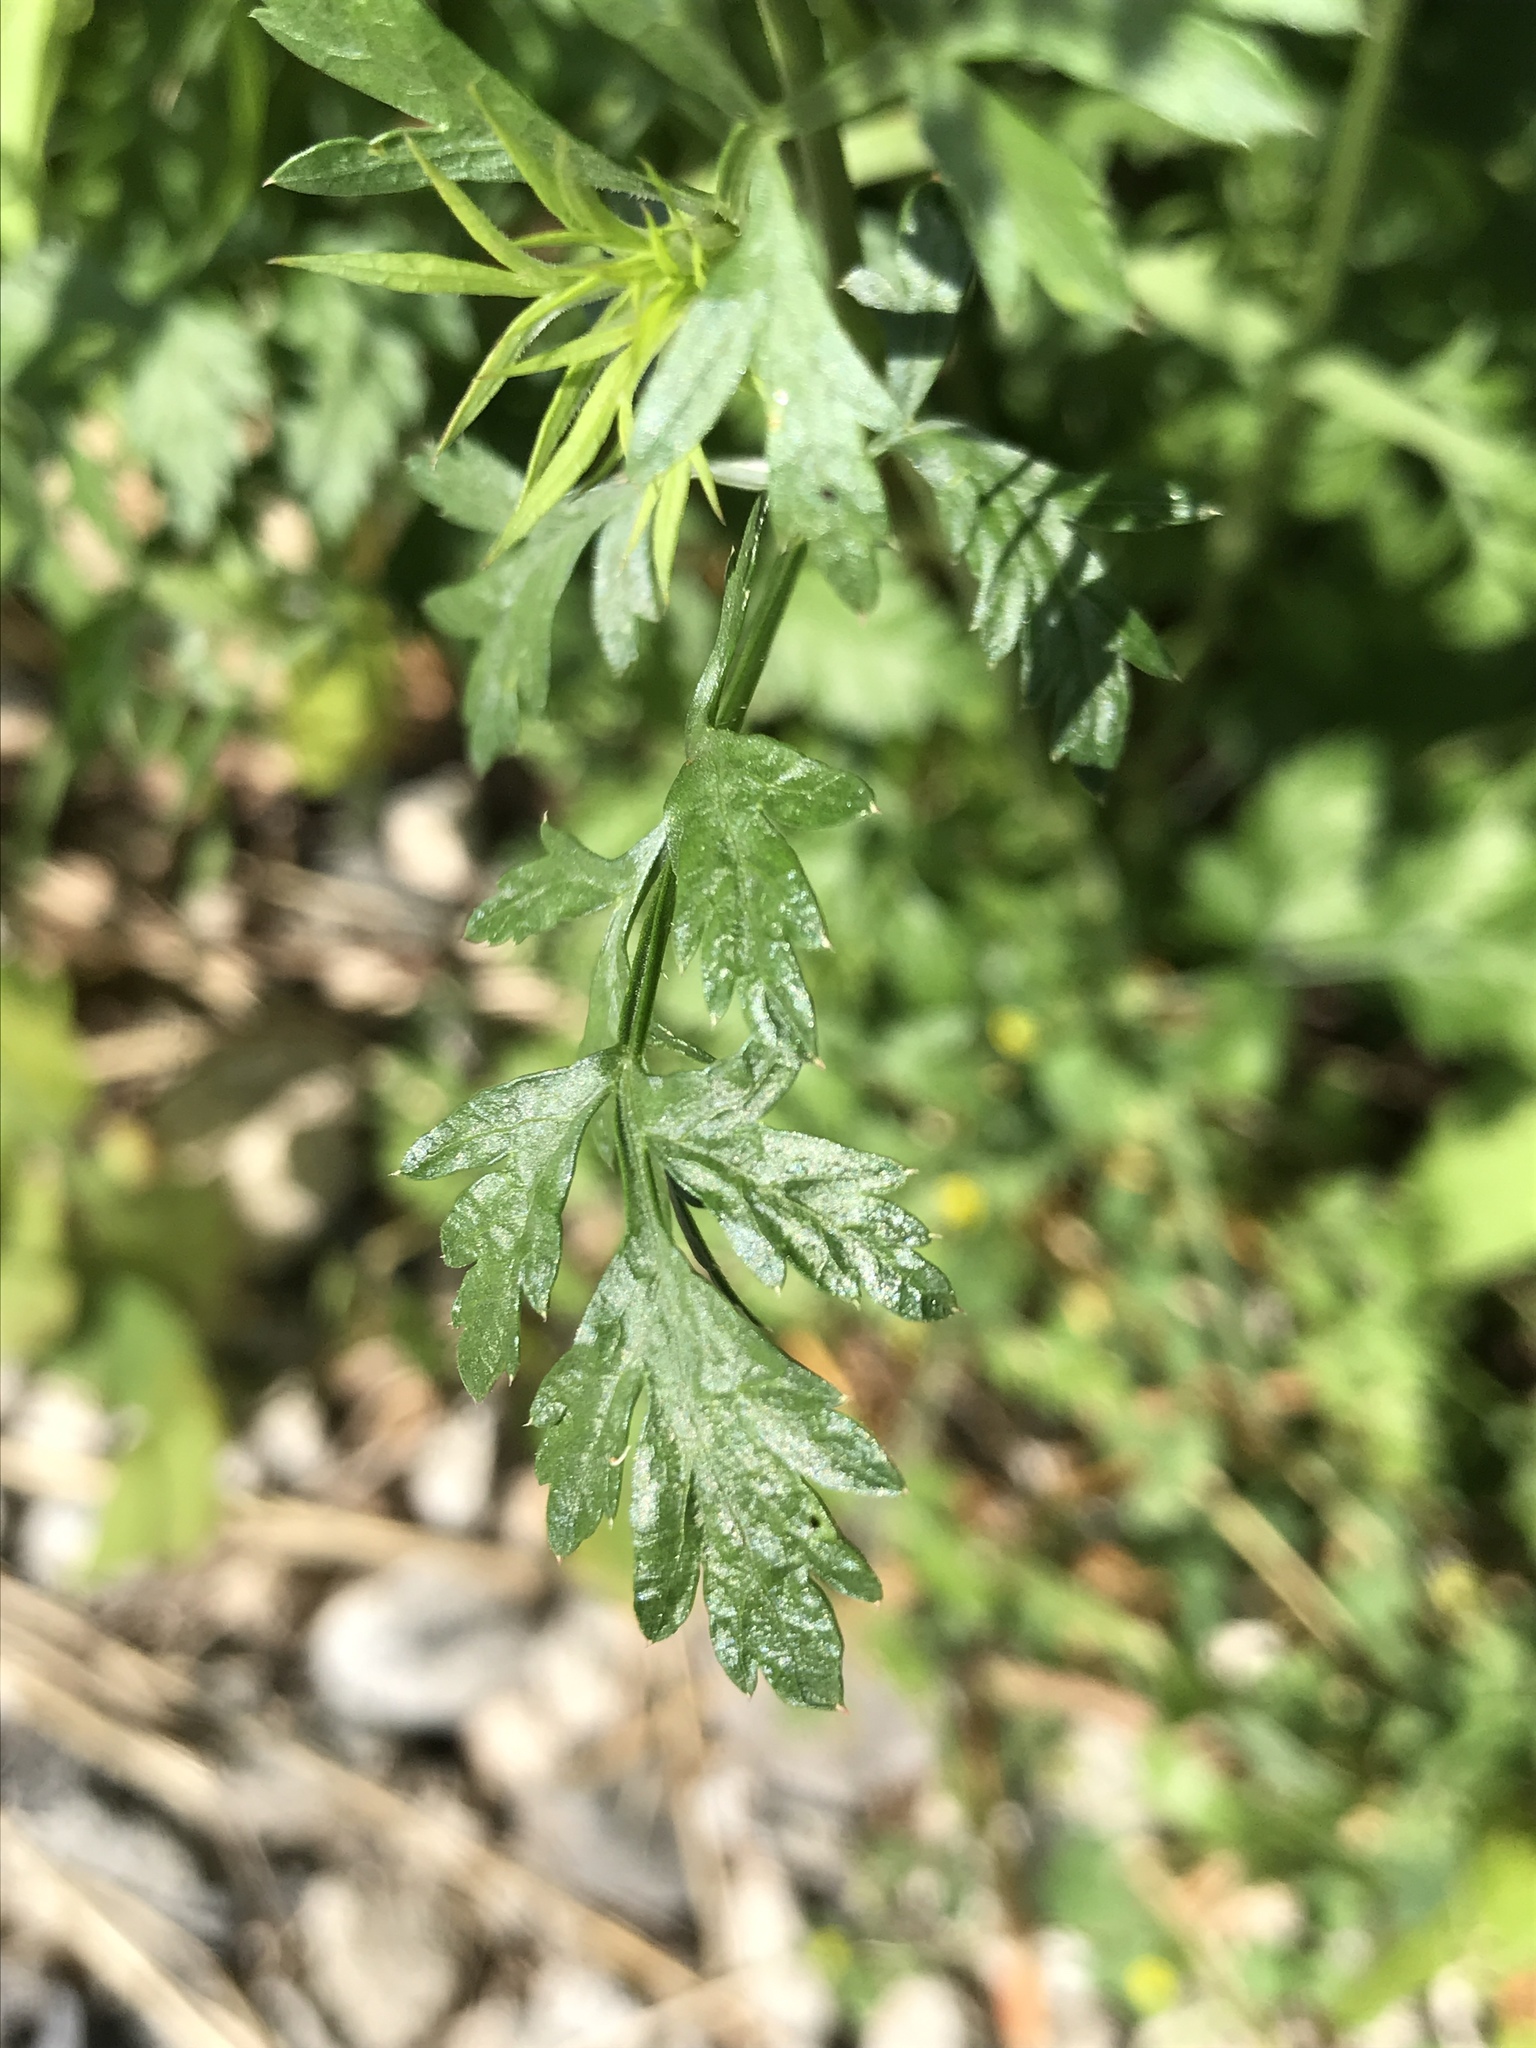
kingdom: Plantae
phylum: Tracheophyta
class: Magnoliopsida
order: Apiales
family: Apiaceae
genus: Daucus
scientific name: Daucus carota
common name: Wild carrot
